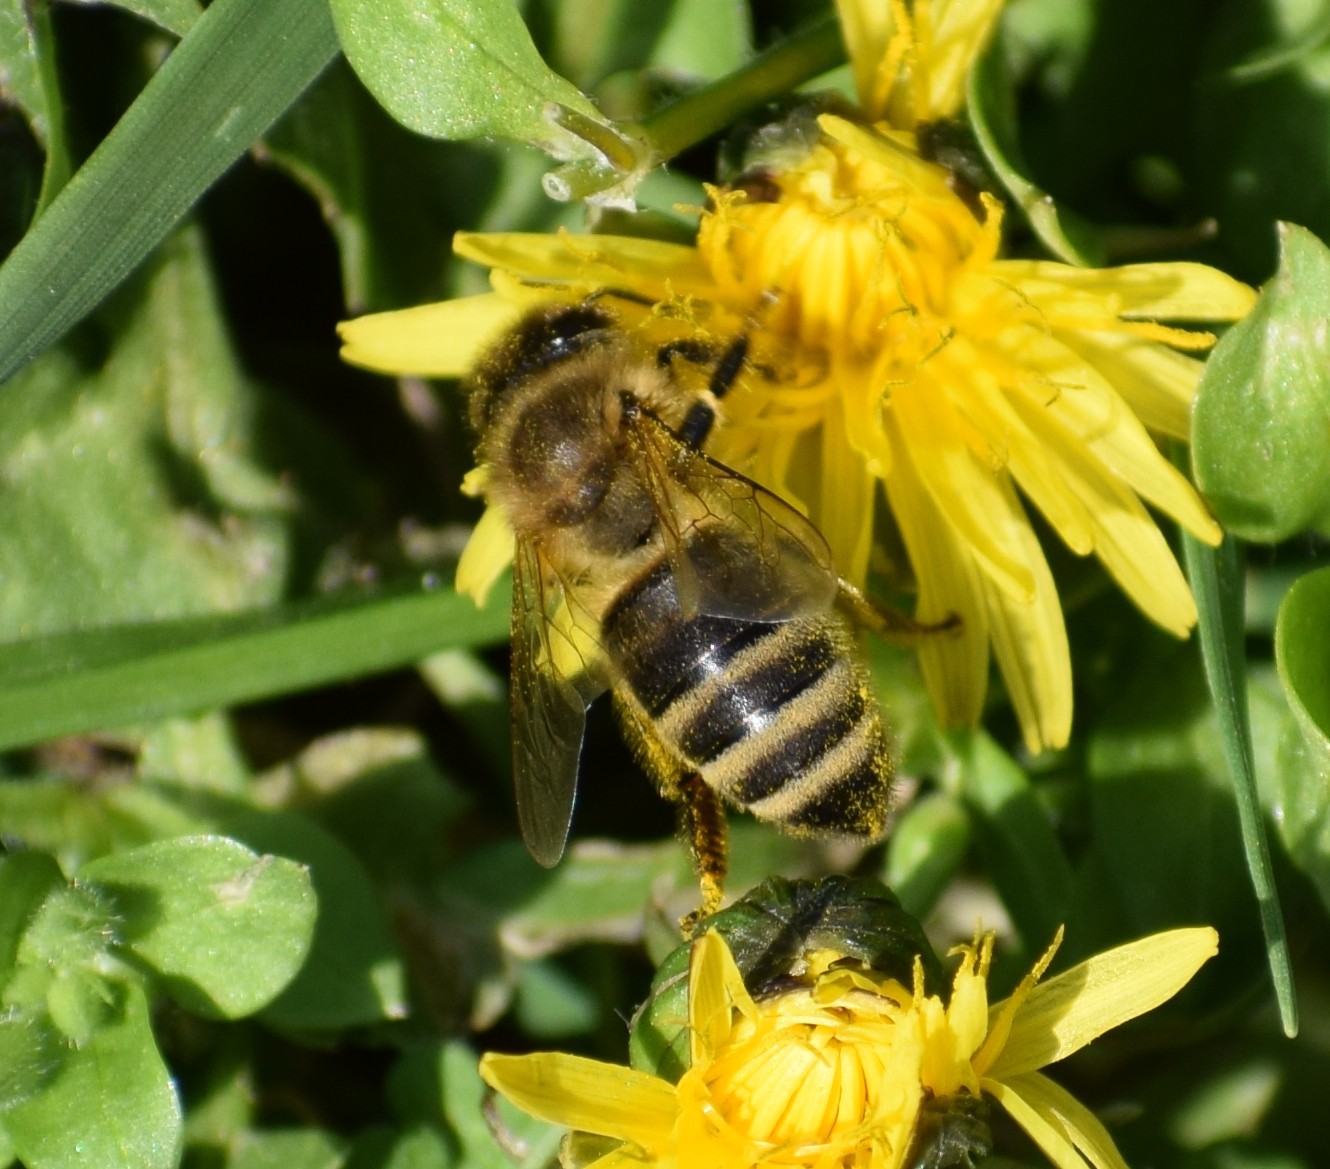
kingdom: Animalia
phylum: Arthropoda
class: Insecta
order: Hymenoptera
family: Apidae
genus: Apis
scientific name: Apis mellifera
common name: Honey bee
